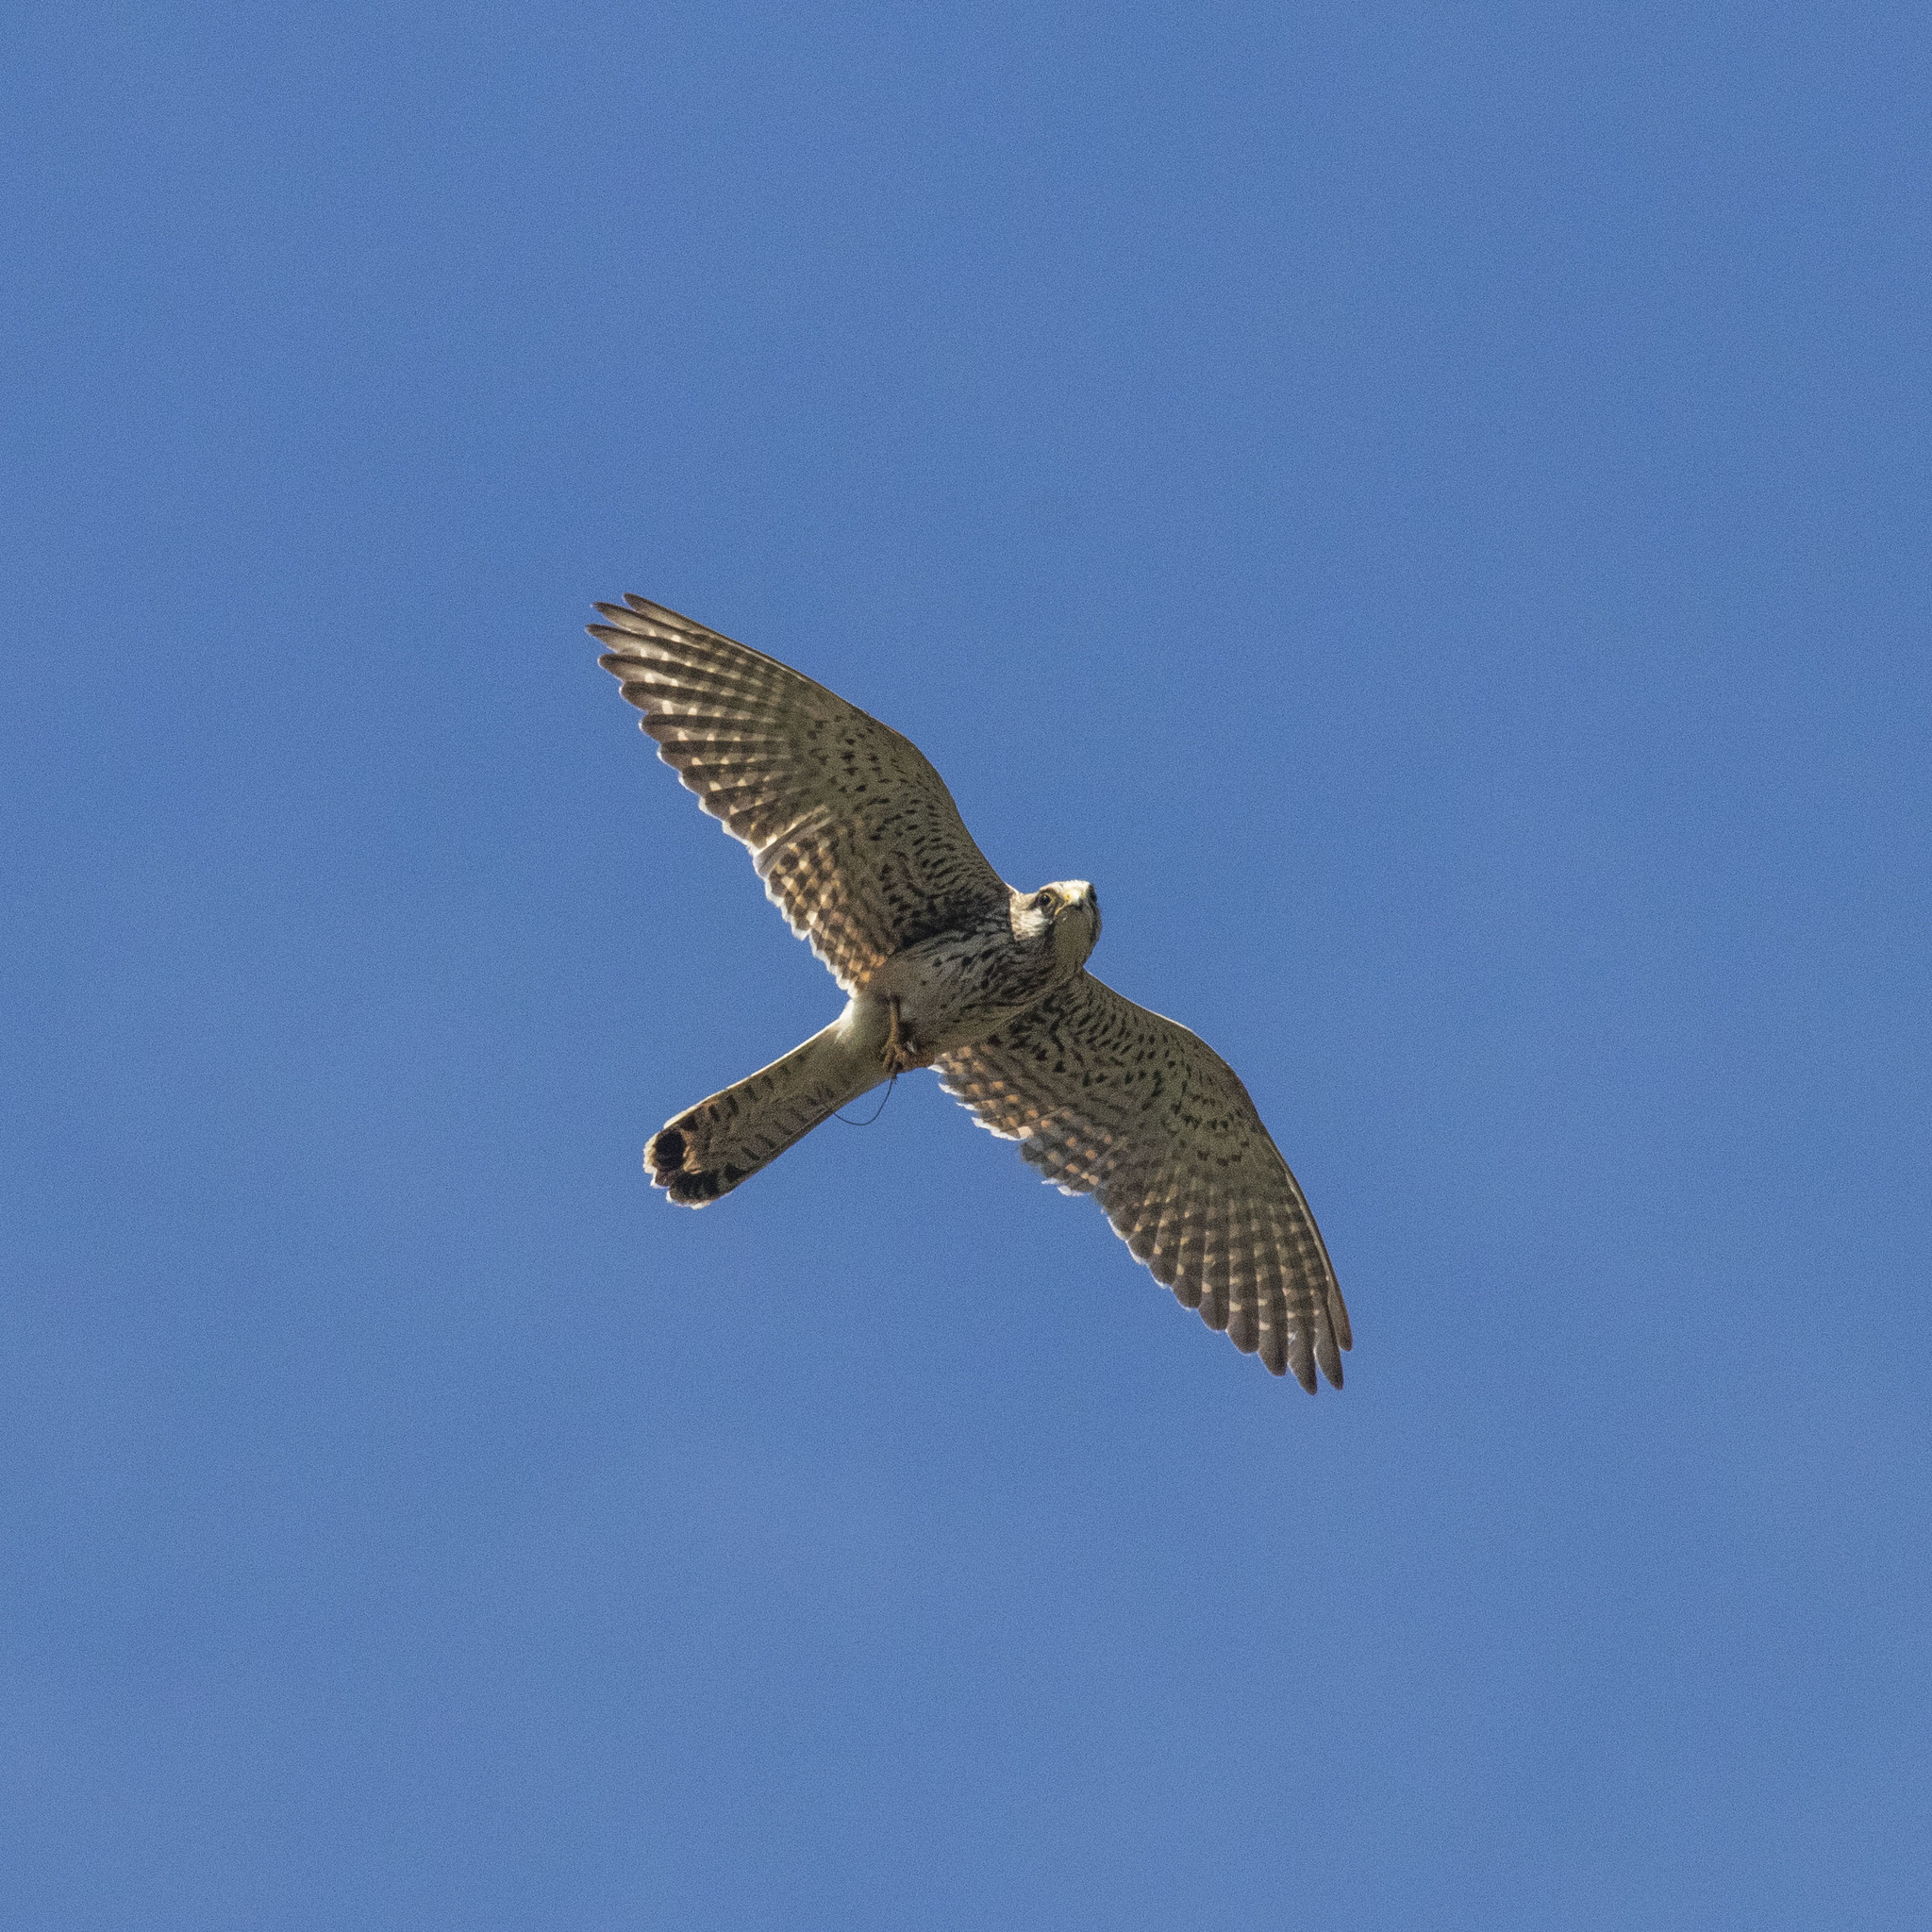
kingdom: Animalia
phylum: Chordata
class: Aves
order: Falconiformes
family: Falconidae
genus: Falco
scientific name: Falco tinnunculus
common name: Common kestrel
